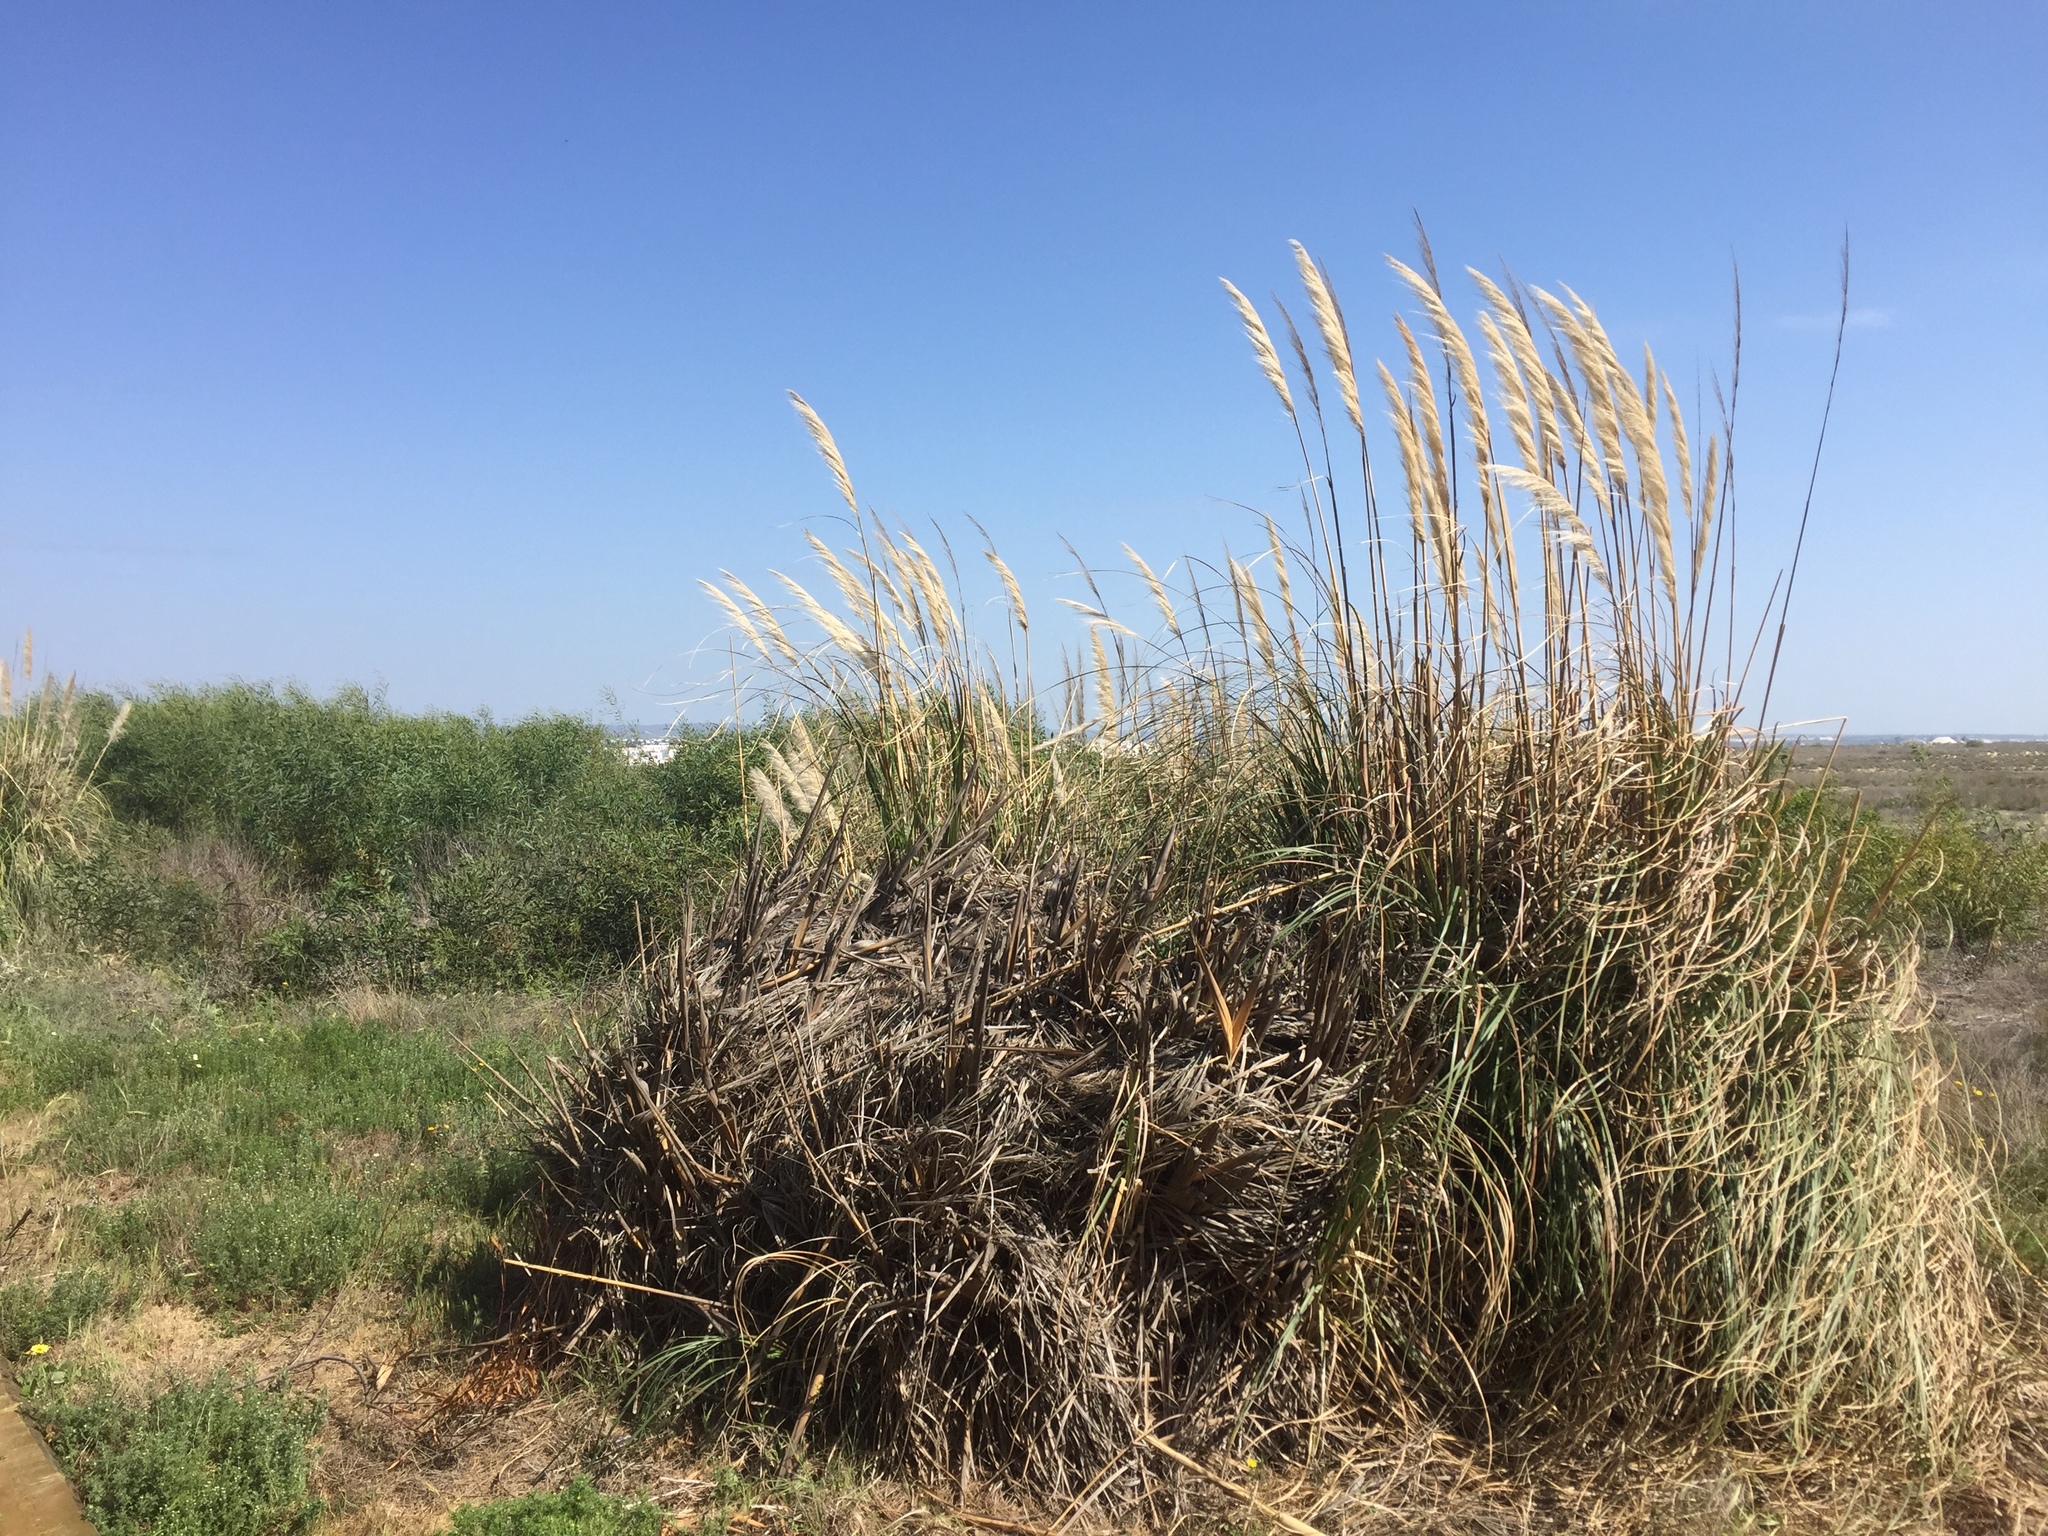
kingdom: Plantae
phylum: Tracheophyta
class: Liliopsida
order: Poales
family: Poaceae
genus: Cortaderia
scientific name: Cortaderia selloana
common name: Uruguayan pampas grass
